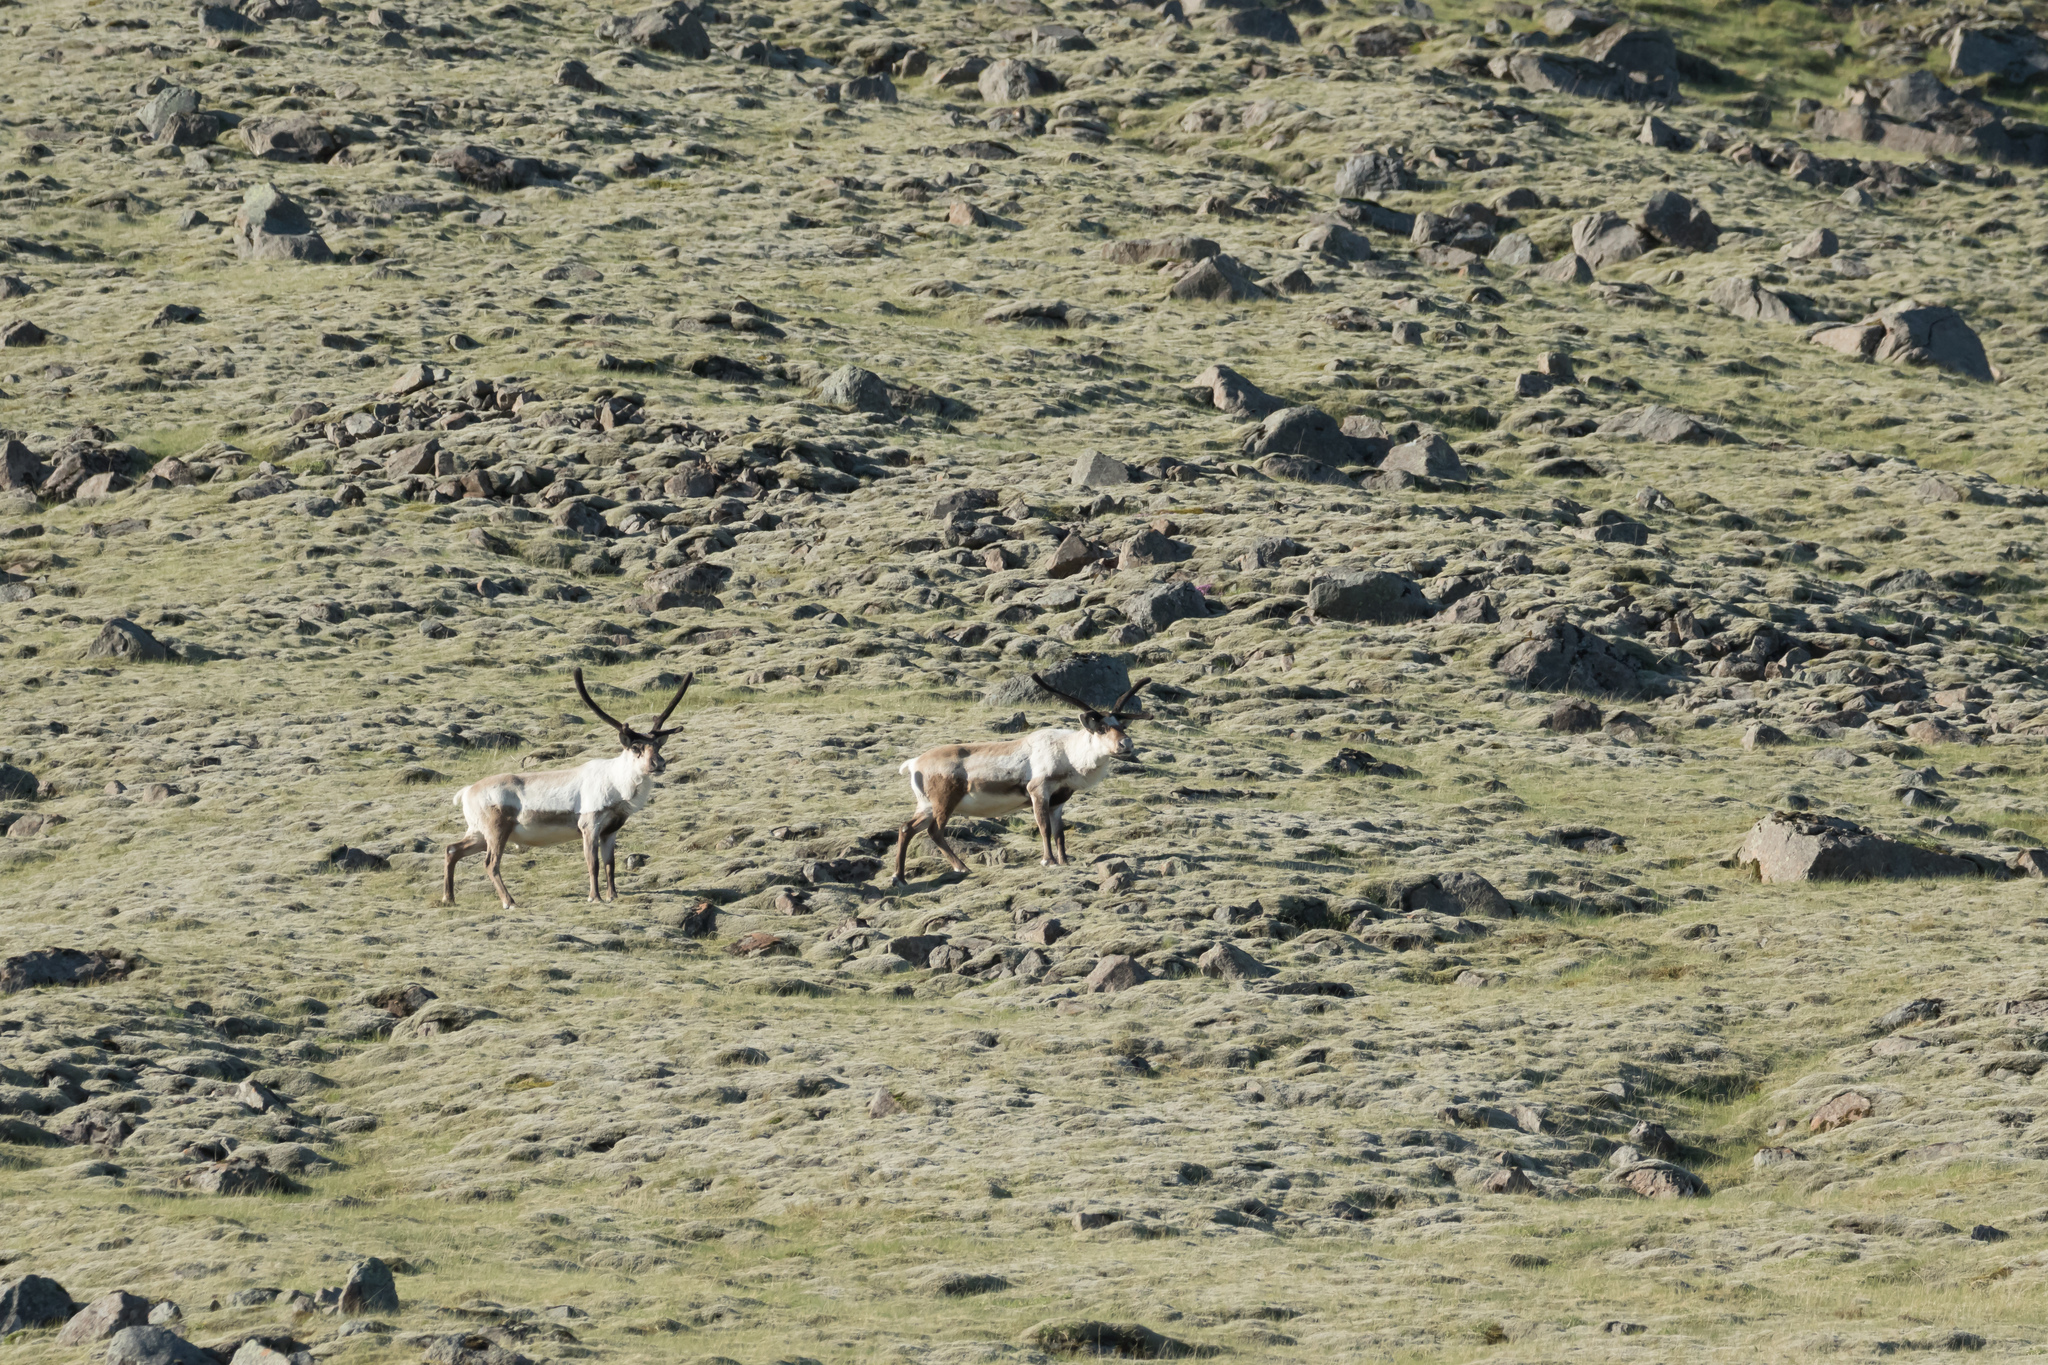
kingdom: Animalia
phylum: Chordata
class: Mammalia
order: Artiodactyla
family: Cervidae
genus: Rangifer
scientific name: Rangifer tarandus
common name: Reindeer
